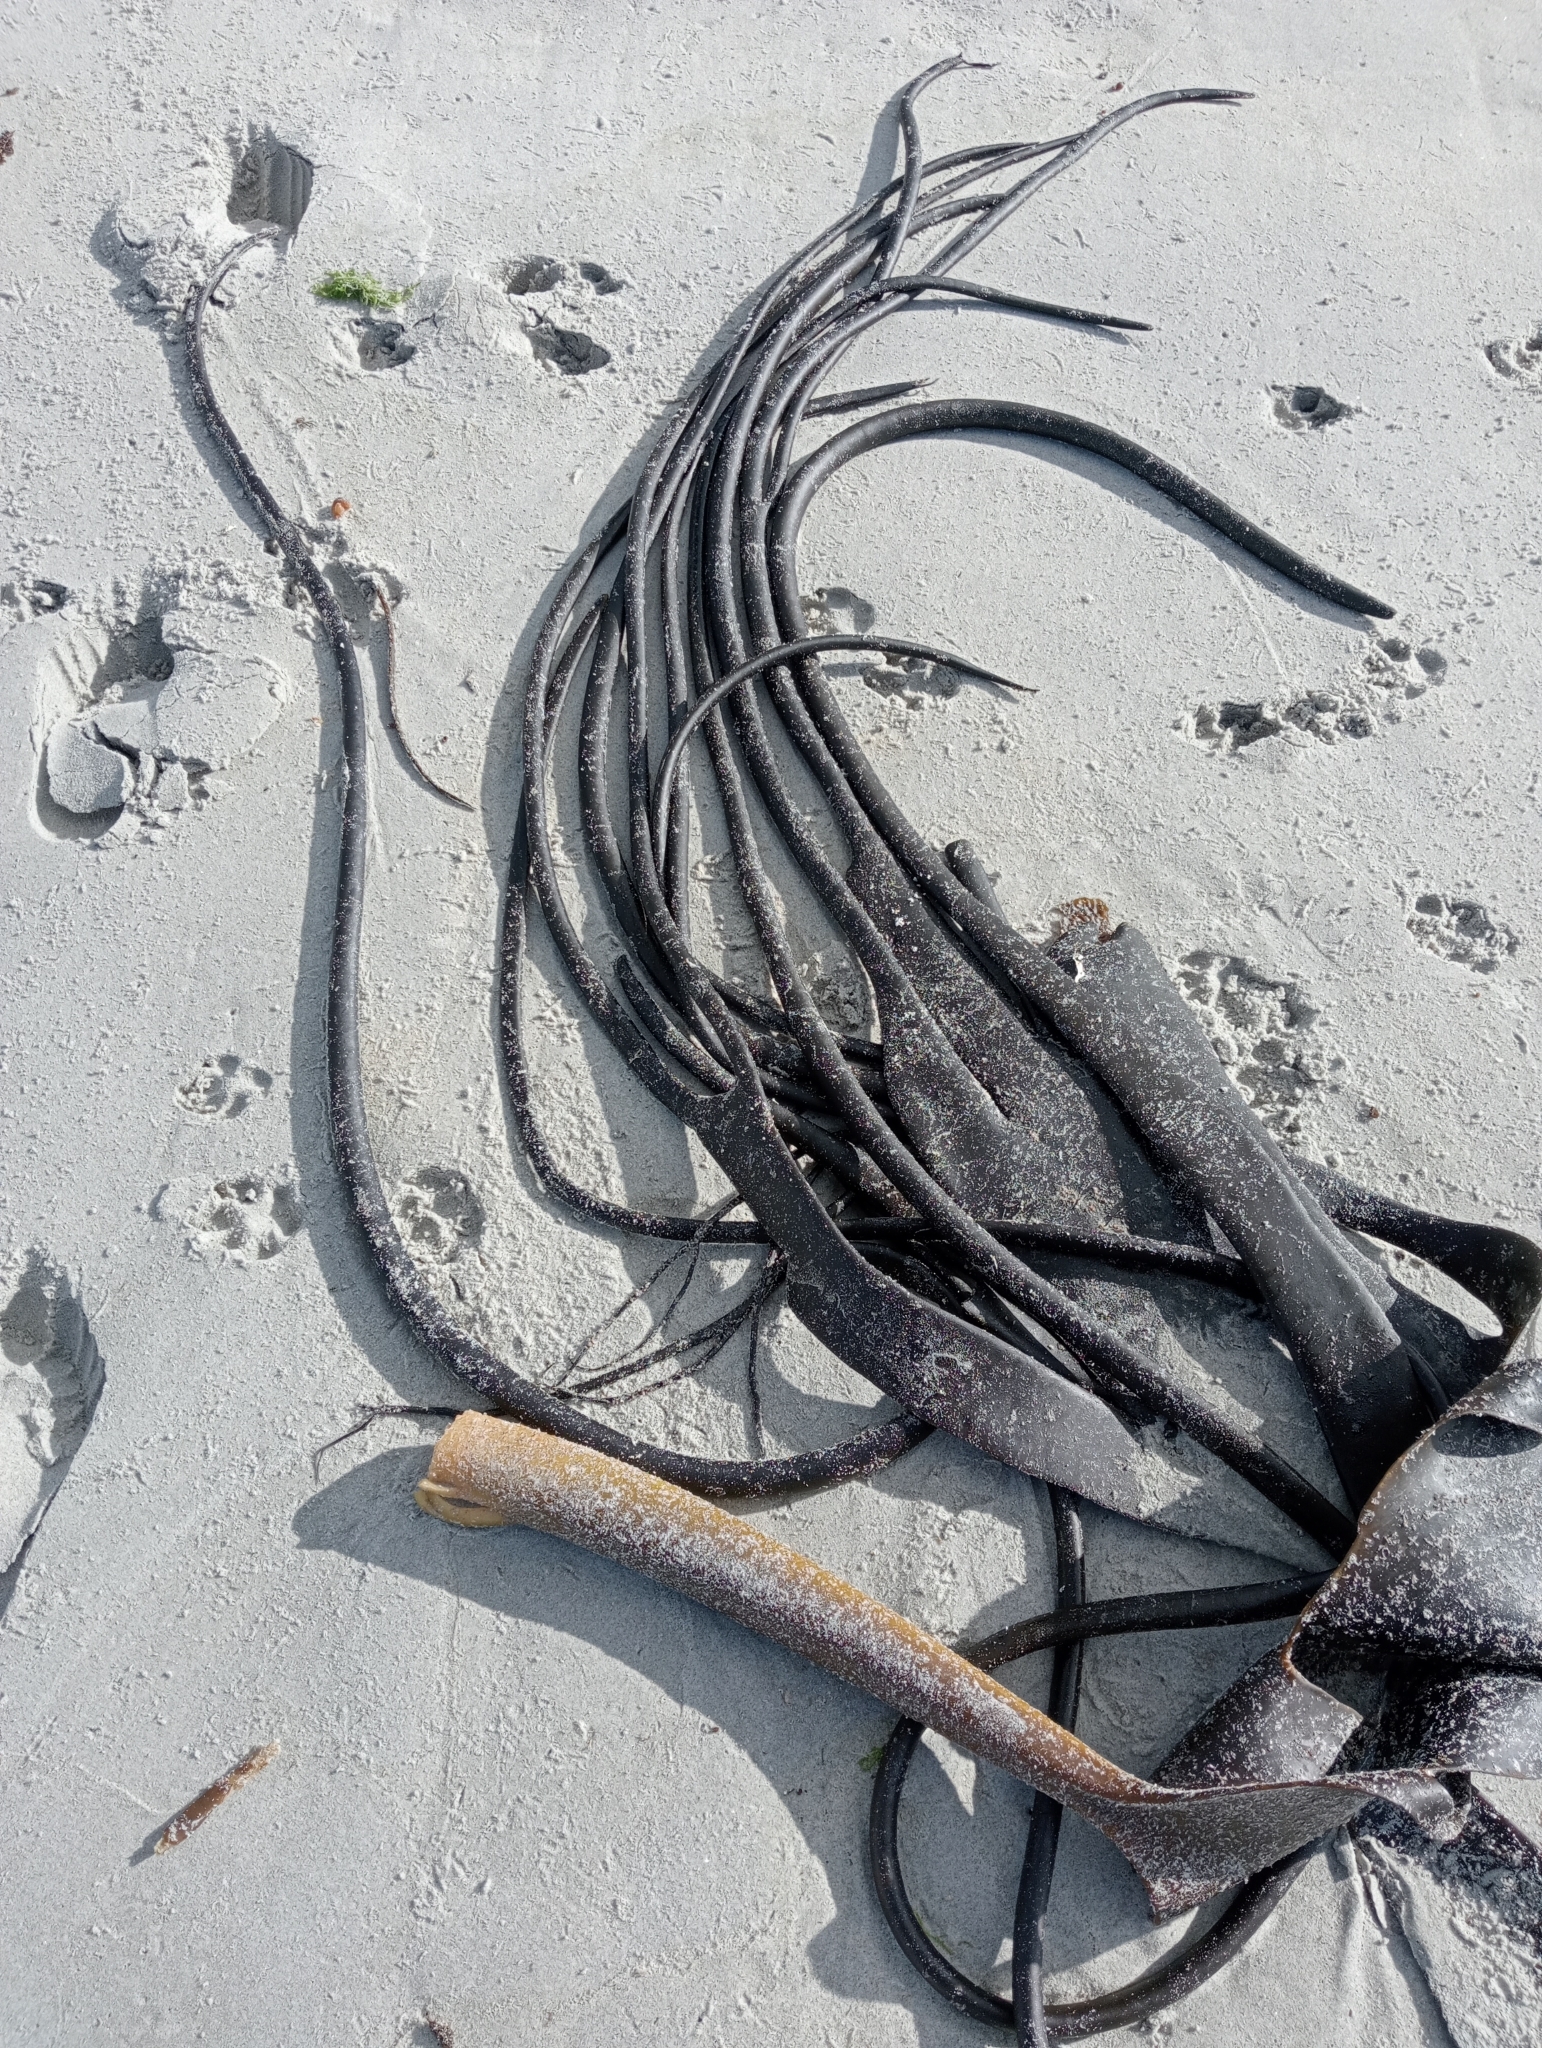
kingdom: Chromista
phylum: Ochrophyta
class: Phaeophyceae
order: Fucales
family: Durvillaeaceae
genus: Durvillaea
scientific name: Durvillaea antarctica
